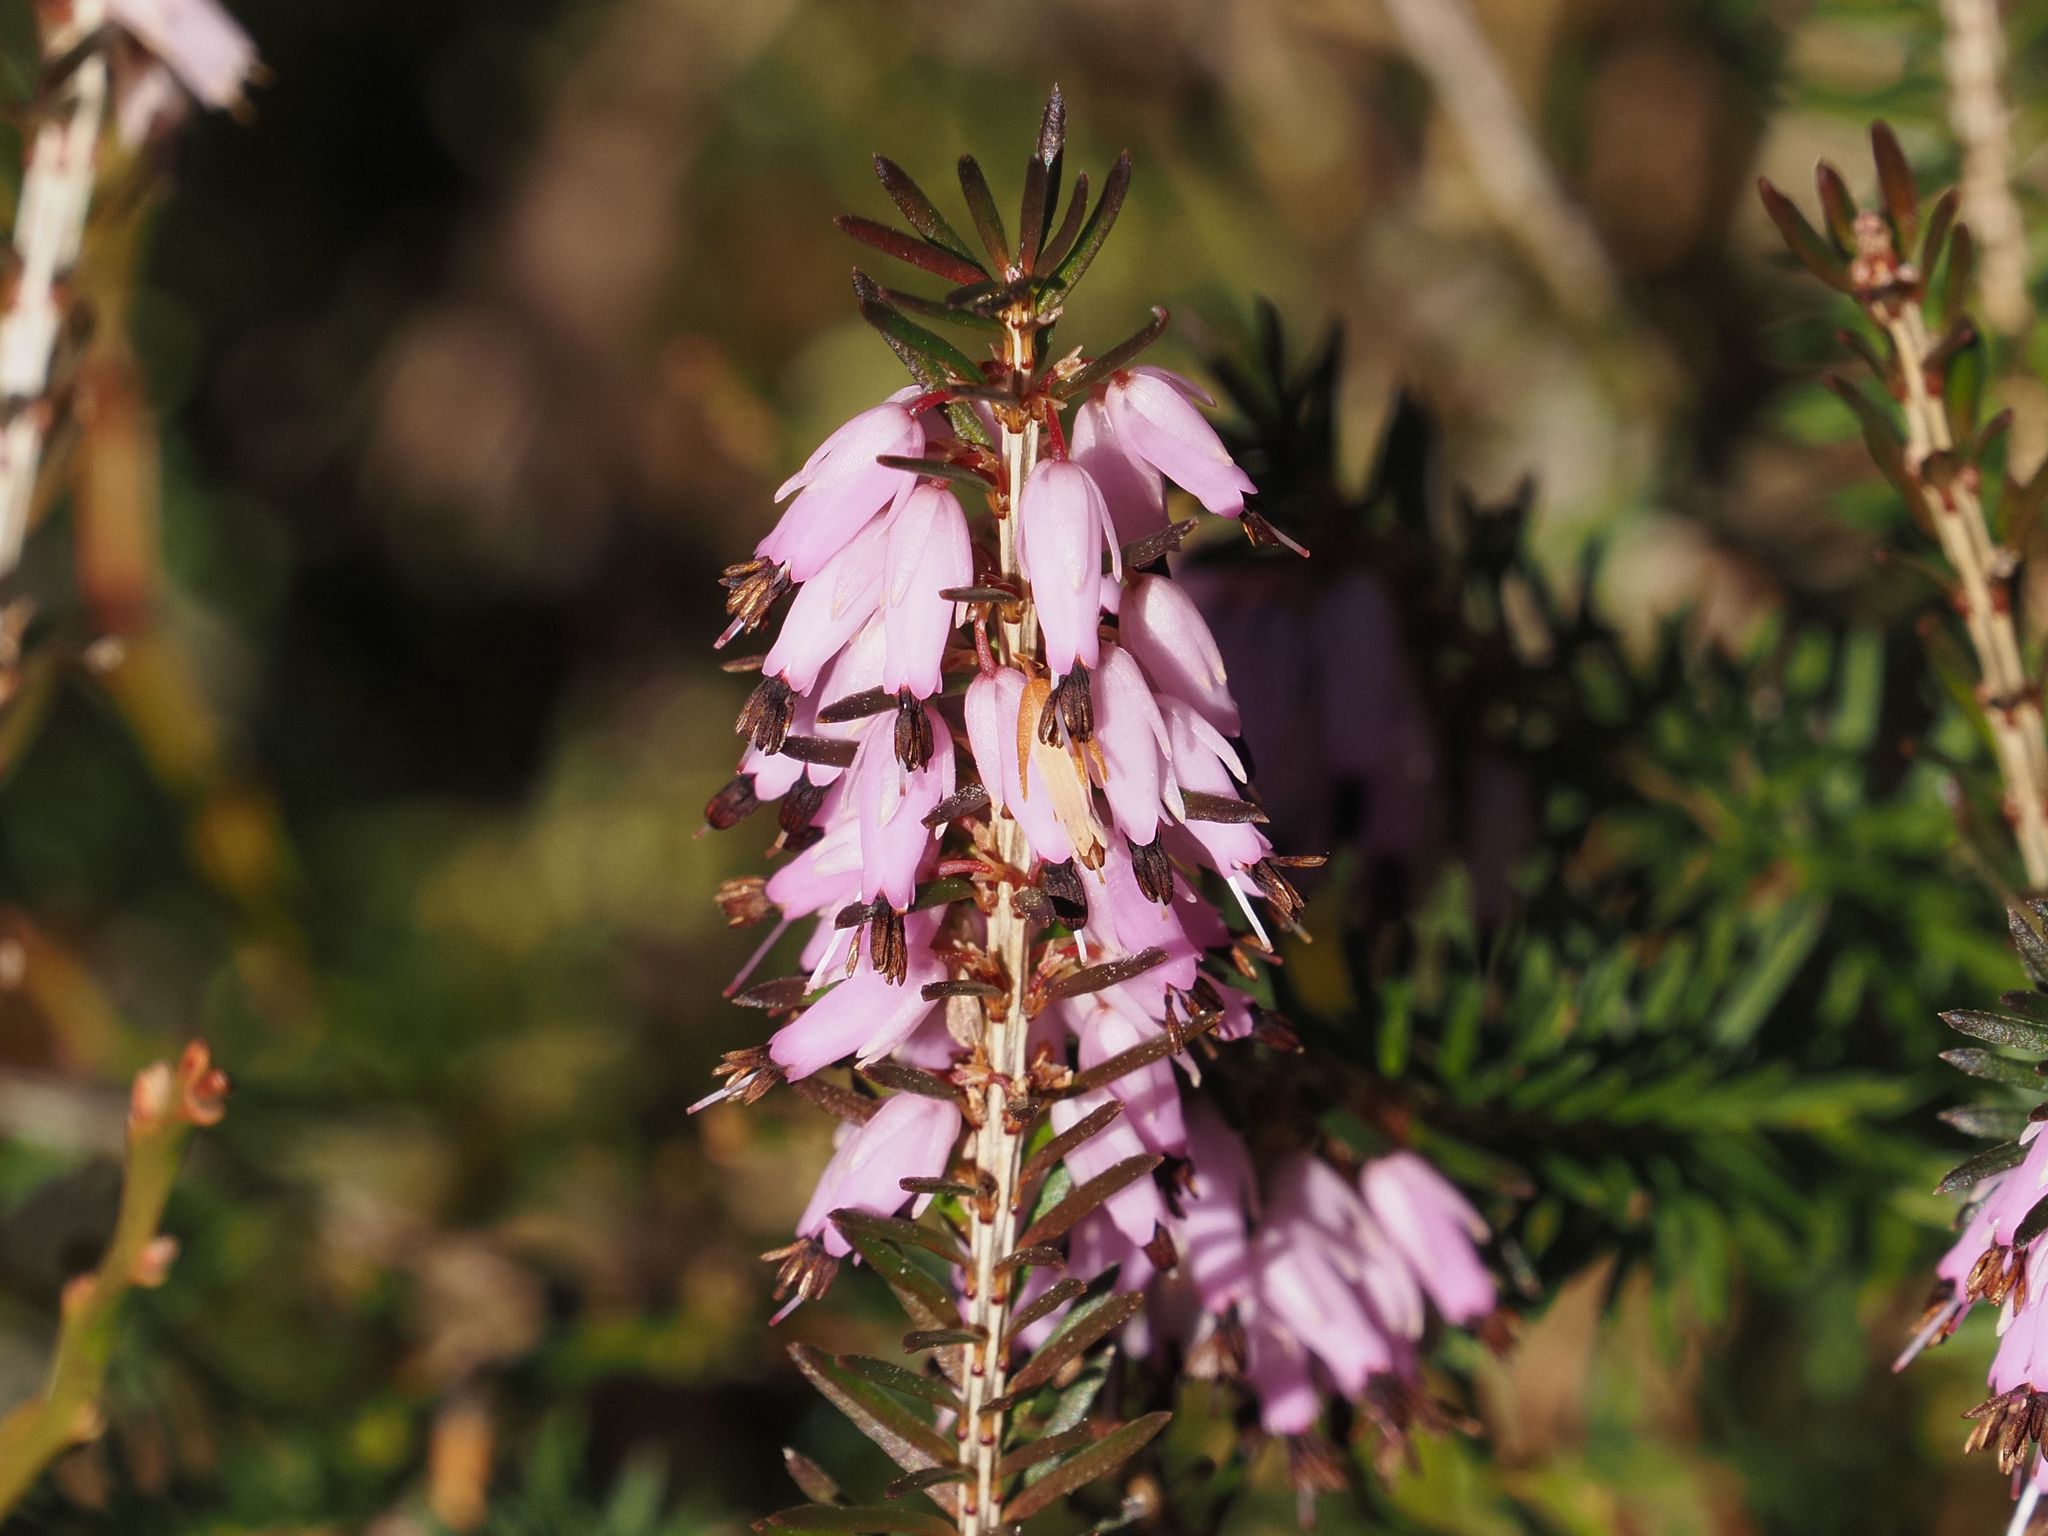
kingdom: Plantae
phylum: Tracheophyta
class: Magnoliopsida
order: Ericales
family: Ericaceae
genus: Erica
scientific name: Erica carnea
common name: Winter heath
